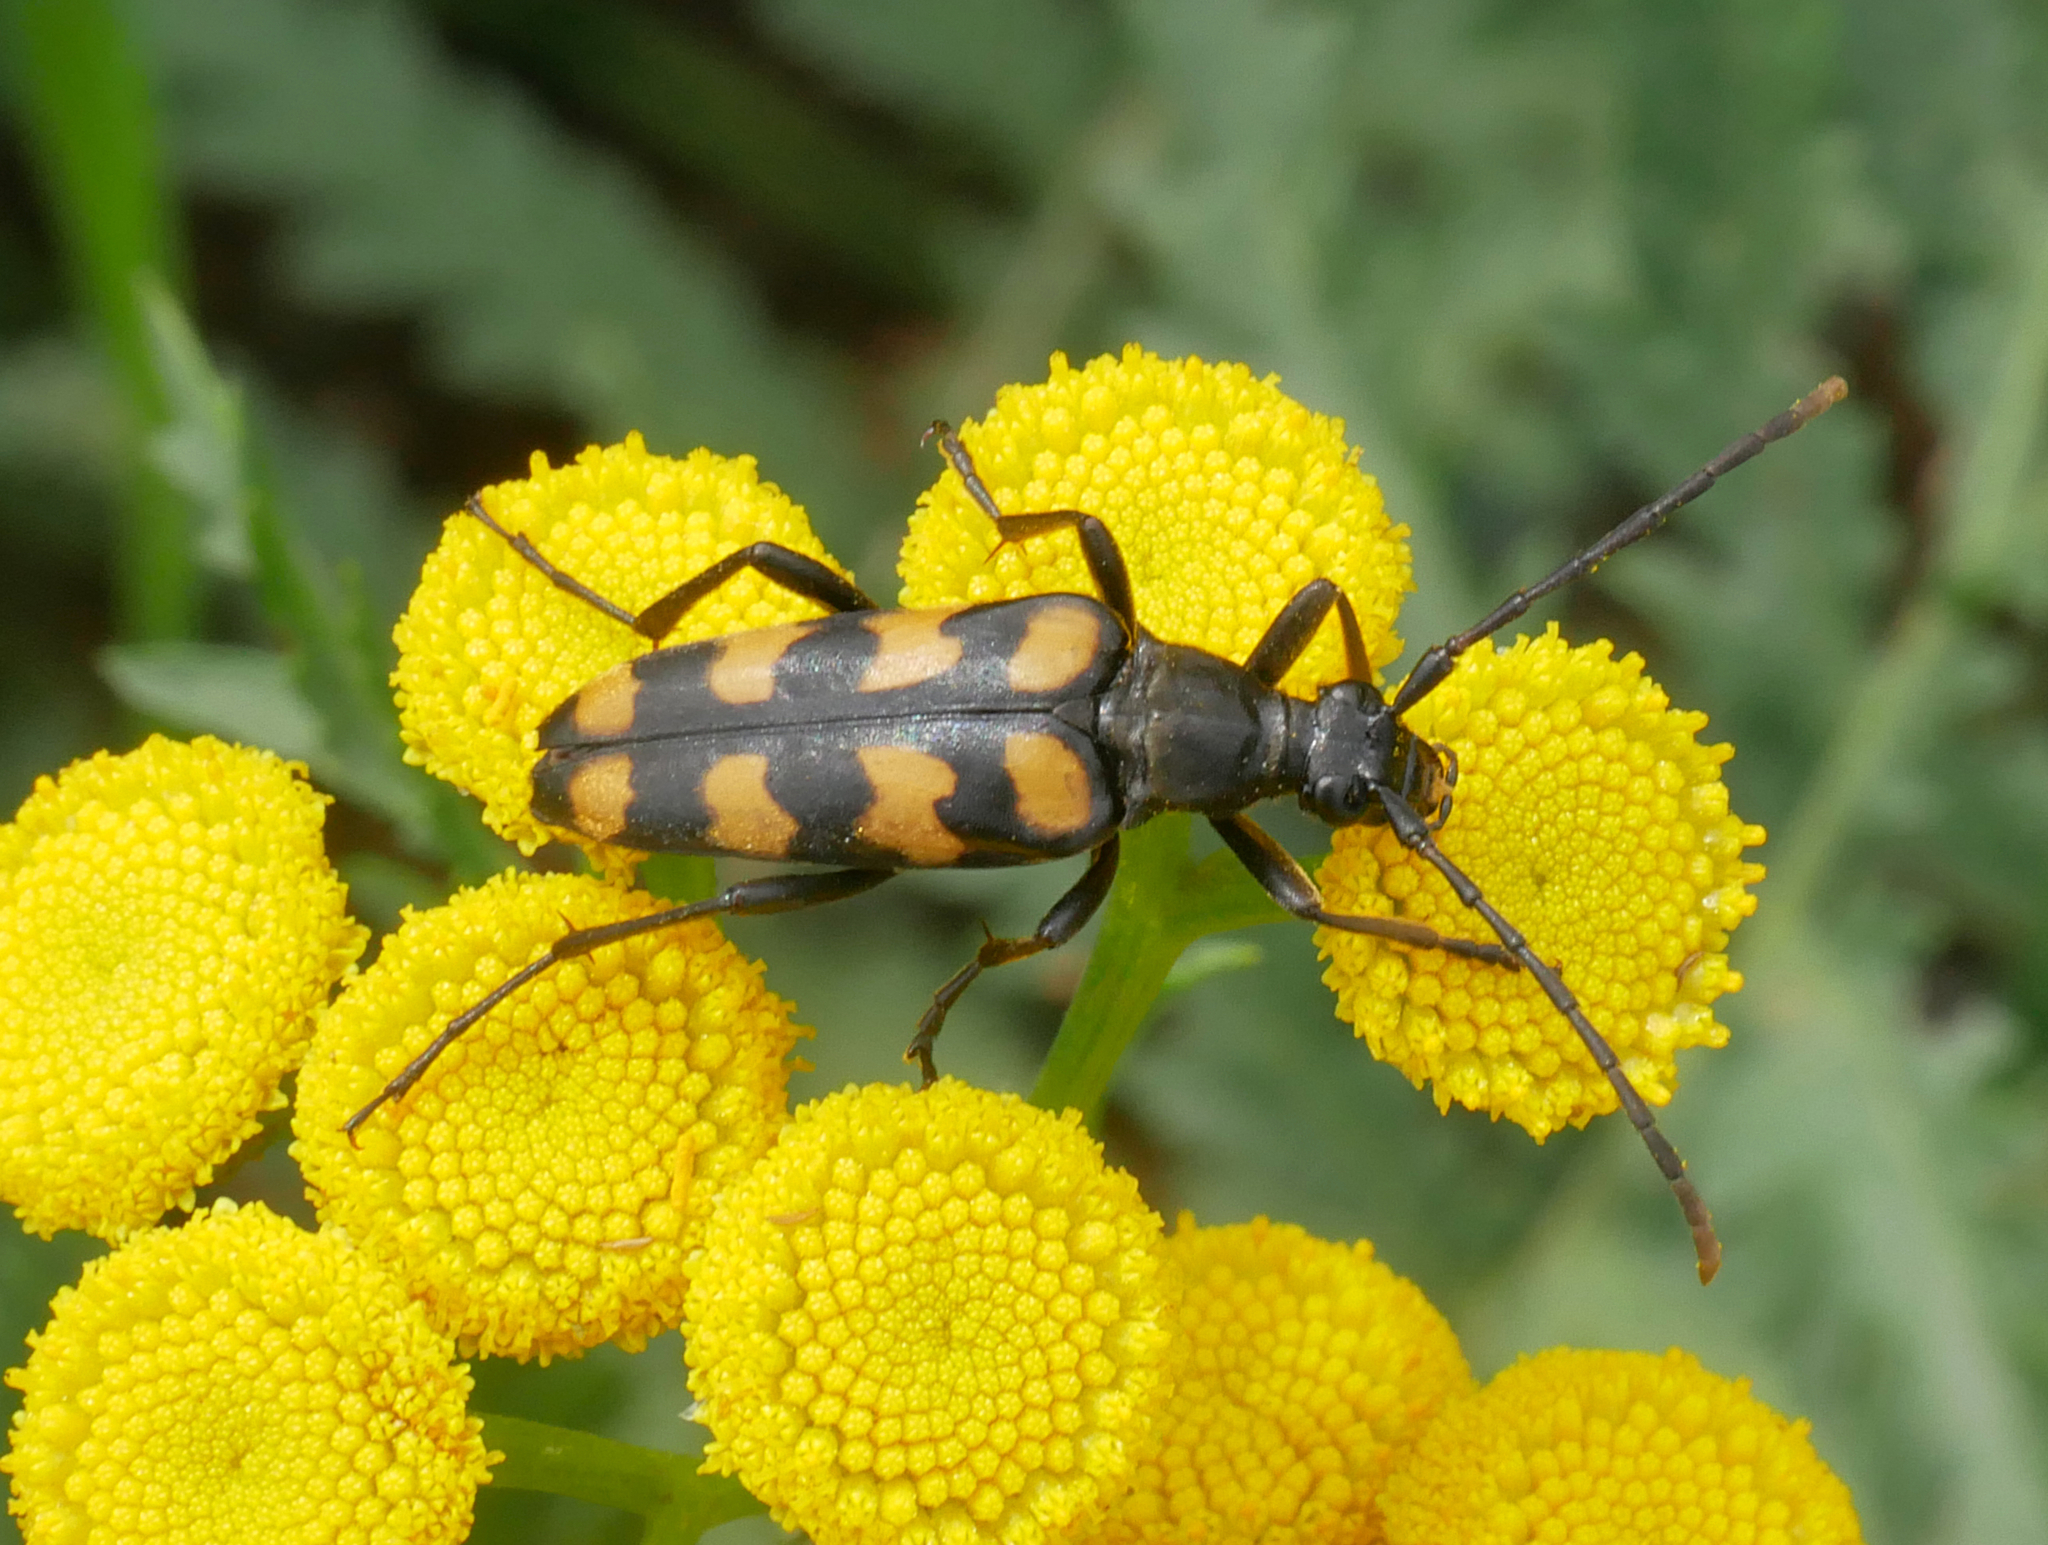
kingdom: Animalia
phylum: Arthropoda
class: Insecta
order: Coleoptera
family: Cerambycidae
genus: Leptura
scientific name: Leptura quadrifasciata
